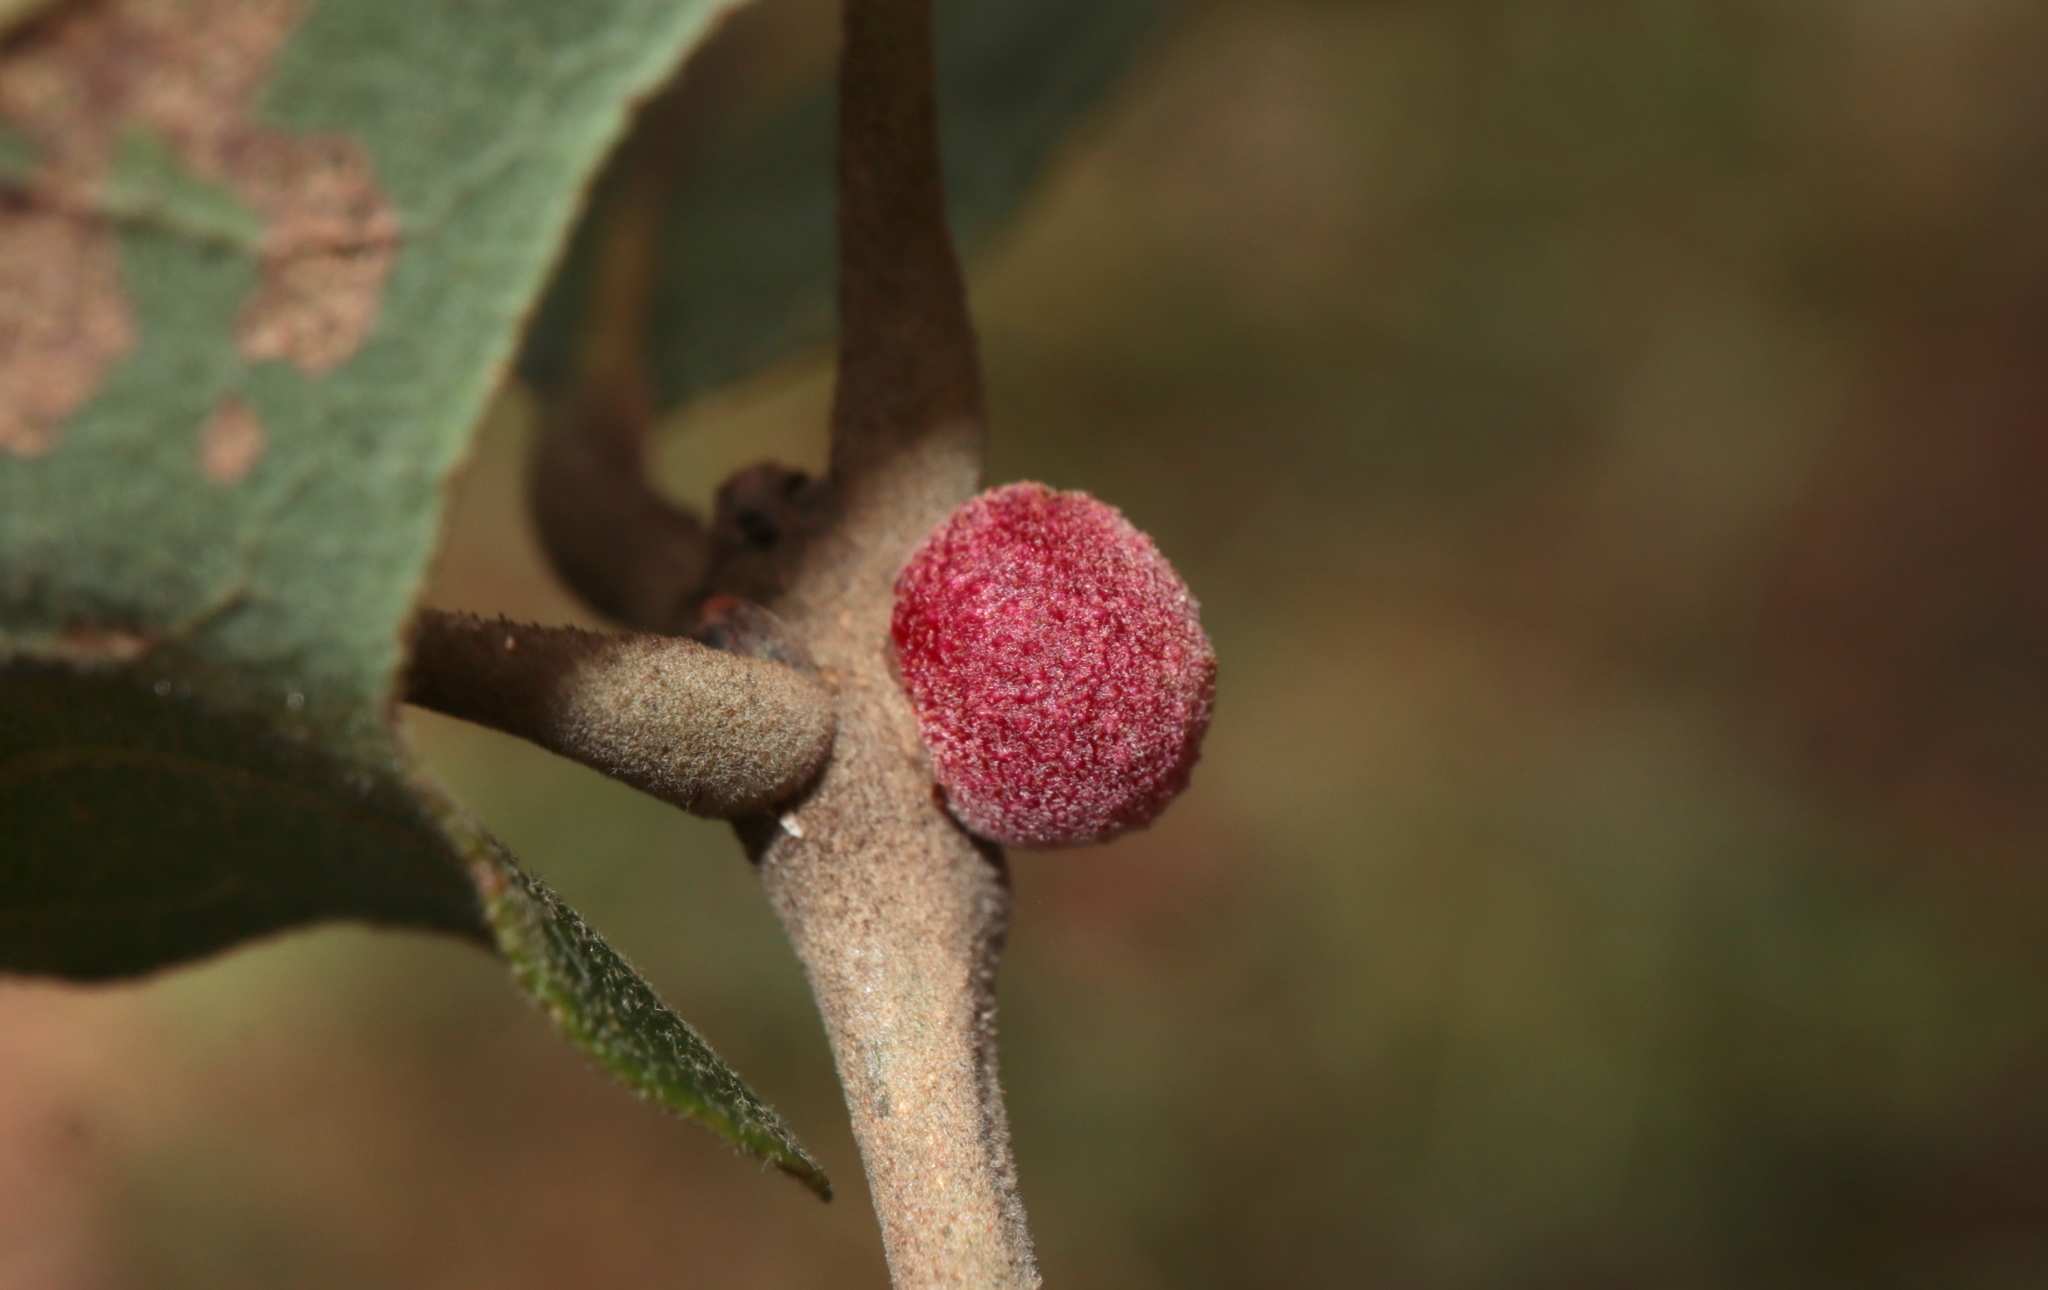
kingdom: Animalia
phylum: Arthropoda
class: Insecta
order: Hymenoptera
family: Cynipidae
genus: Disholcaspis
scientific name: Disholcaspis quercusglobulus
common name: Round bullet gall wasp
